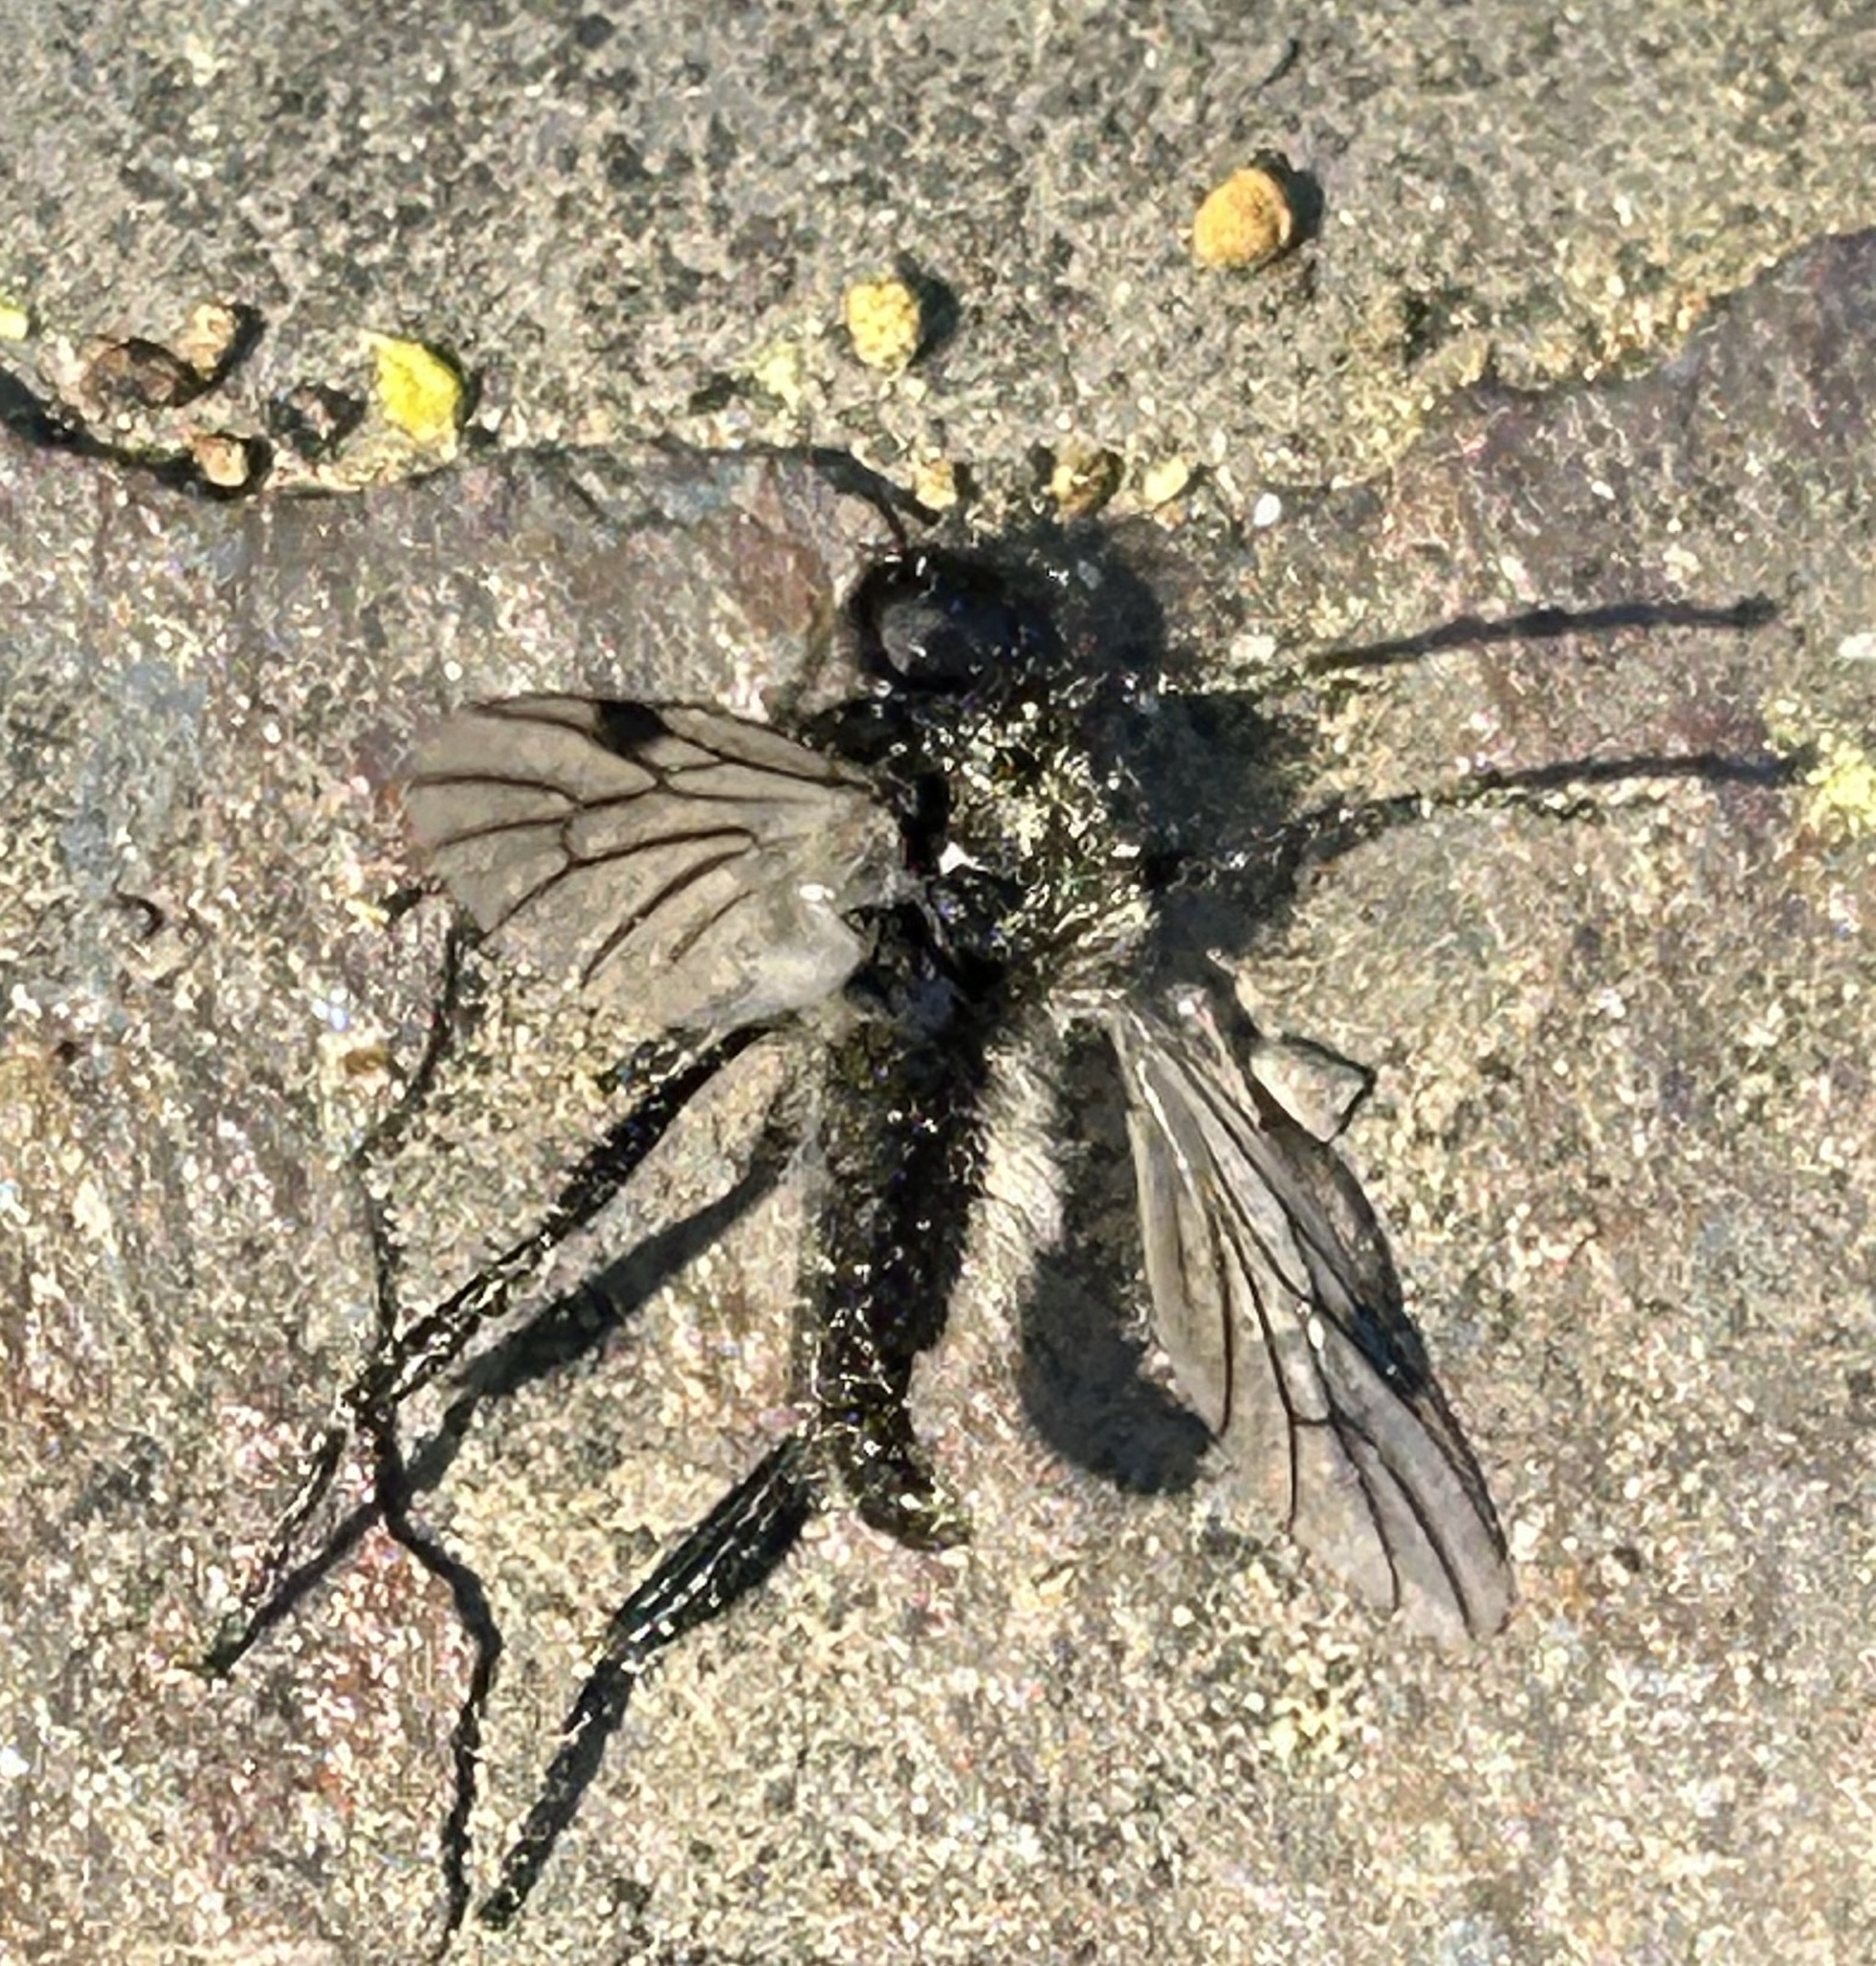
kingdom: Animalia
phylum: Arthropoda
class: Insecta
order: Diptera
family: Bibionidae
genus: Bibio
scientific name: Bibio albipennis
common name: White-winged march fly
